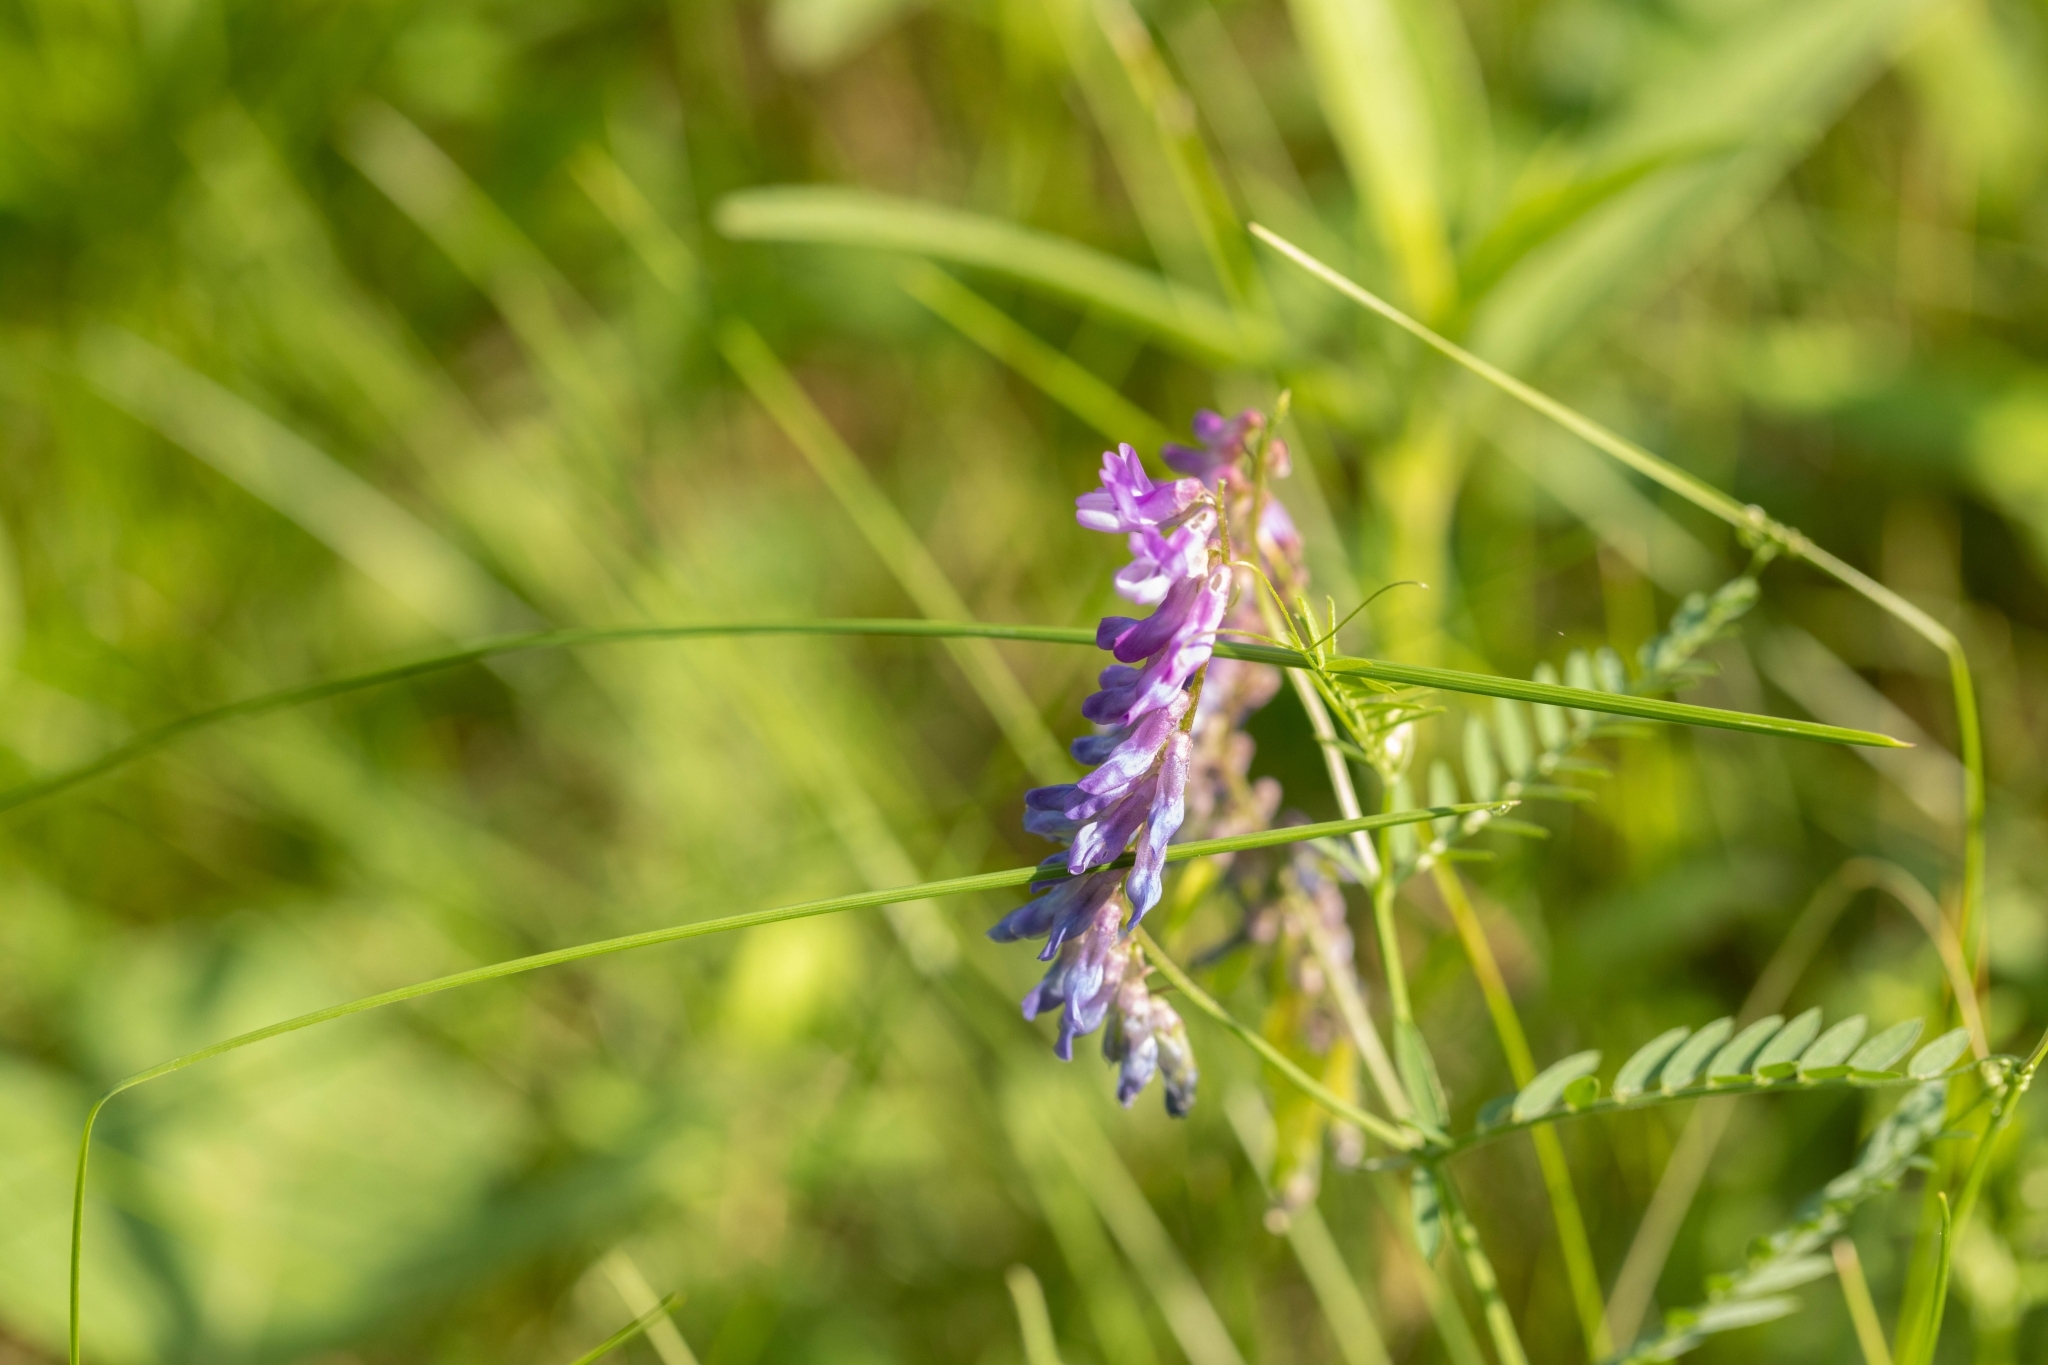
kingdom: Plantae
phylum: Tracheophyta
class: Magnoliopsida
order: Fabales
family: Fabaceae
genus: Vicia
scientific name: Vicia cracca
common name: Bird vetch
